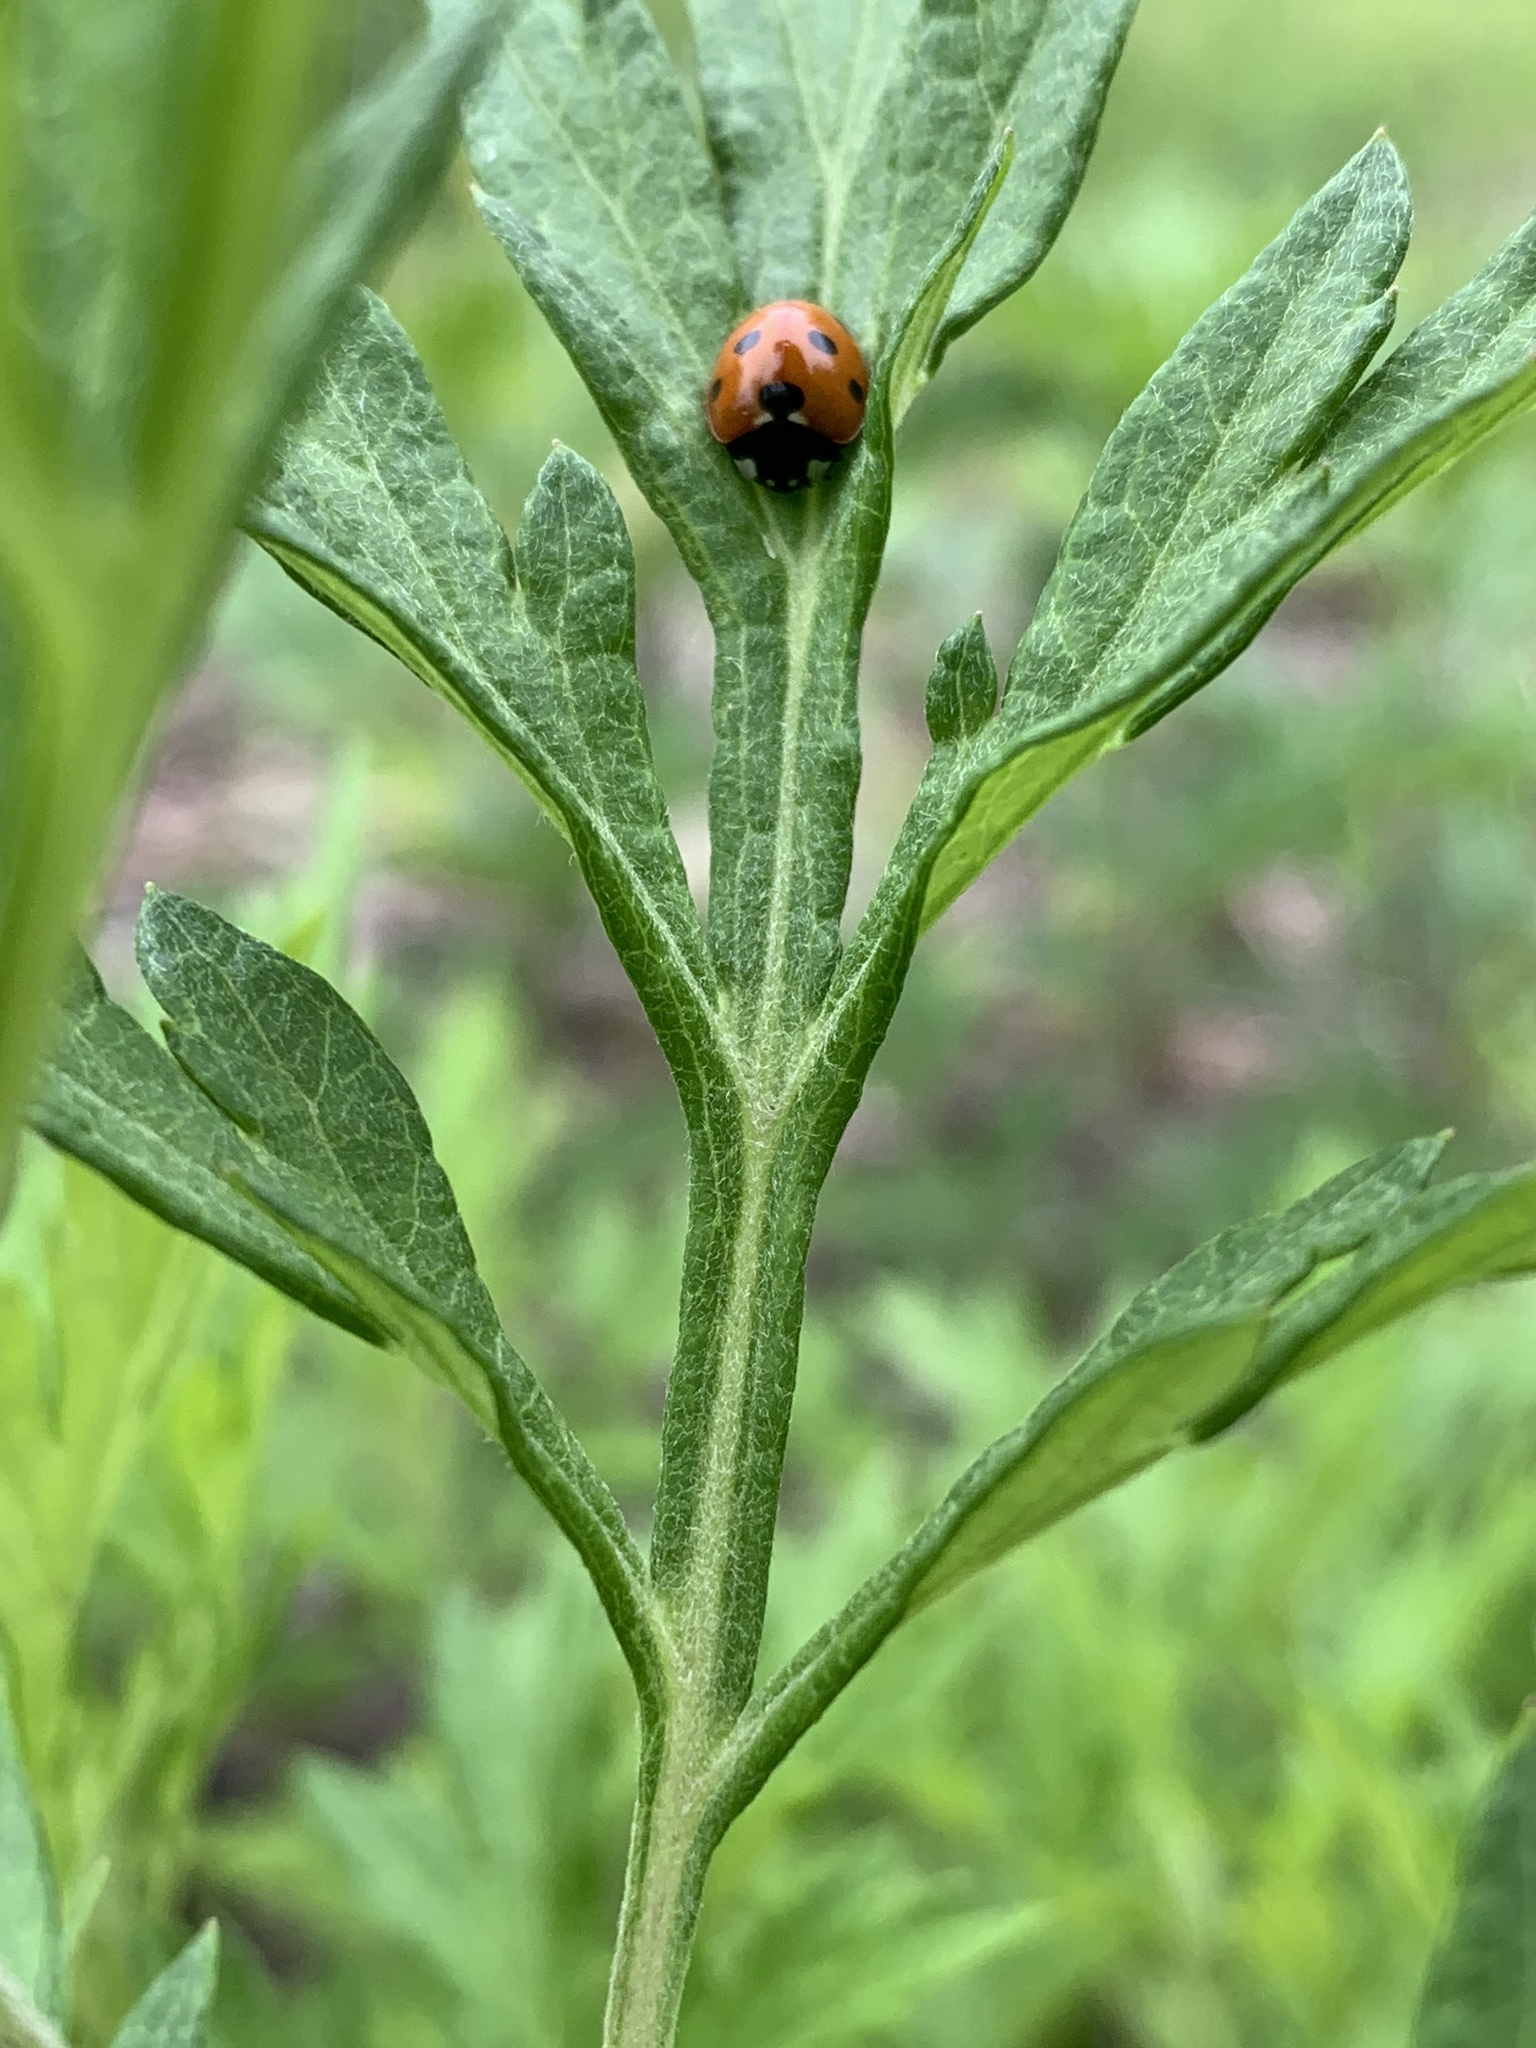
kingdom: Animalia
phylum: Arthropoda
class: Insecta
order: Coleoptera
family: Coccinellidae
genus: Coccinella
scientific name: Coccinella septempunctata
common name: Sevenspotted lady beetle
